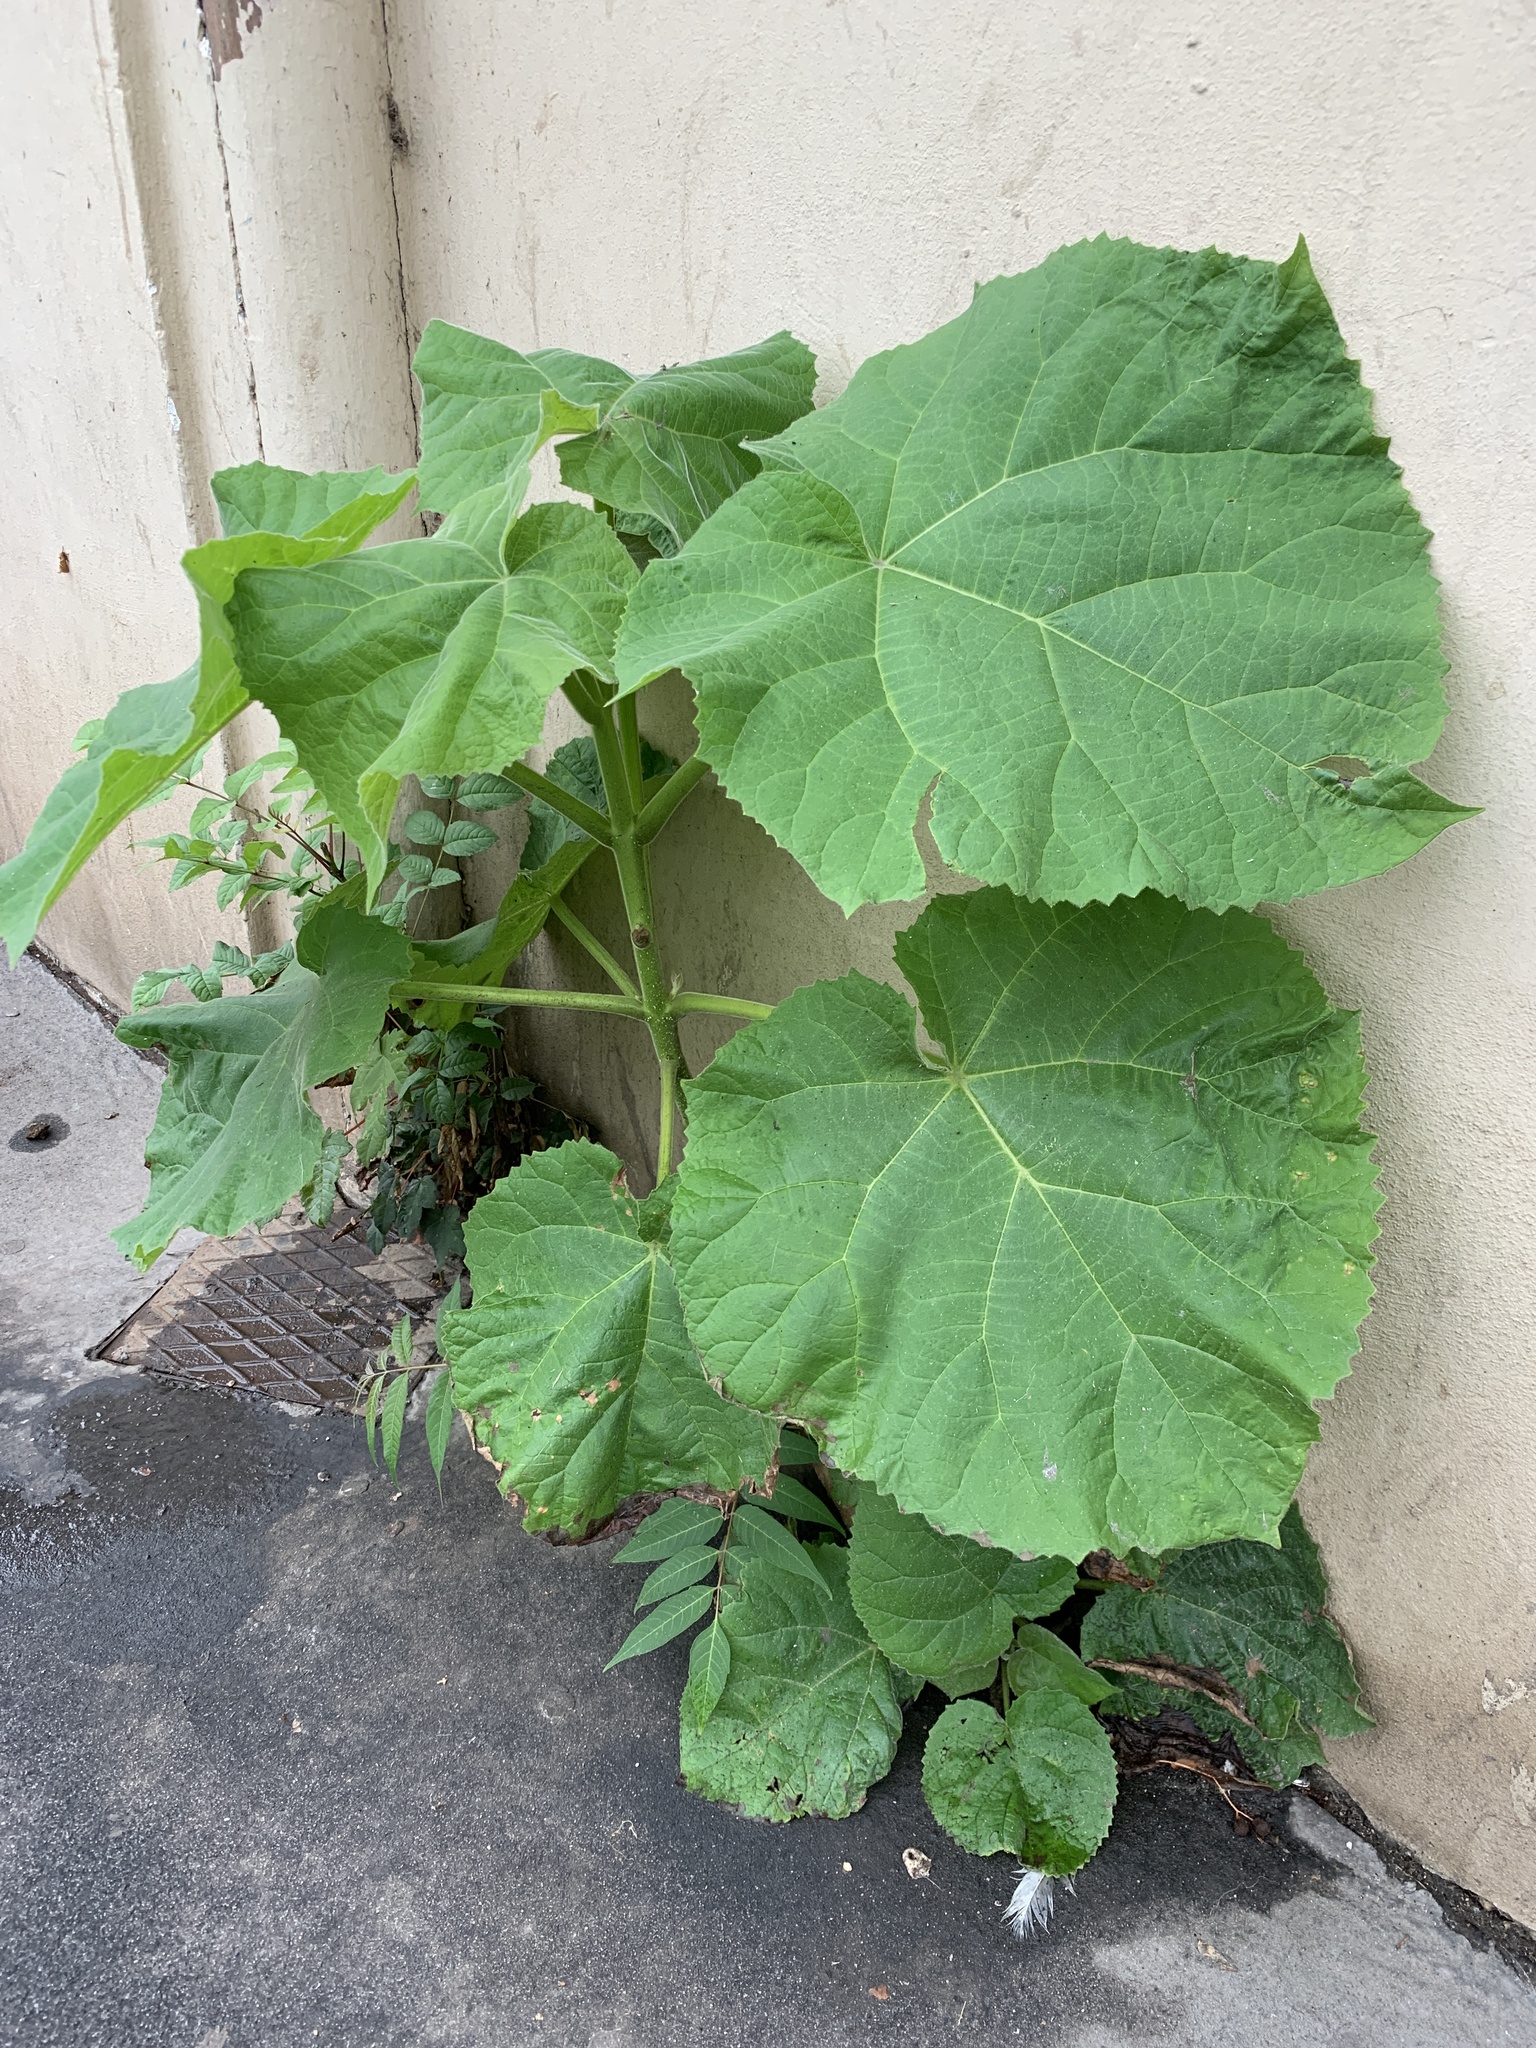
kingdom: Plantae
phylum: Tracheophyta
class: Magnoliopsida
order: Lamiales
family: Paulowniaceae
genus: Paulownia
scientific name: Paulownia tomentosa
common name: Foxglove-tree
